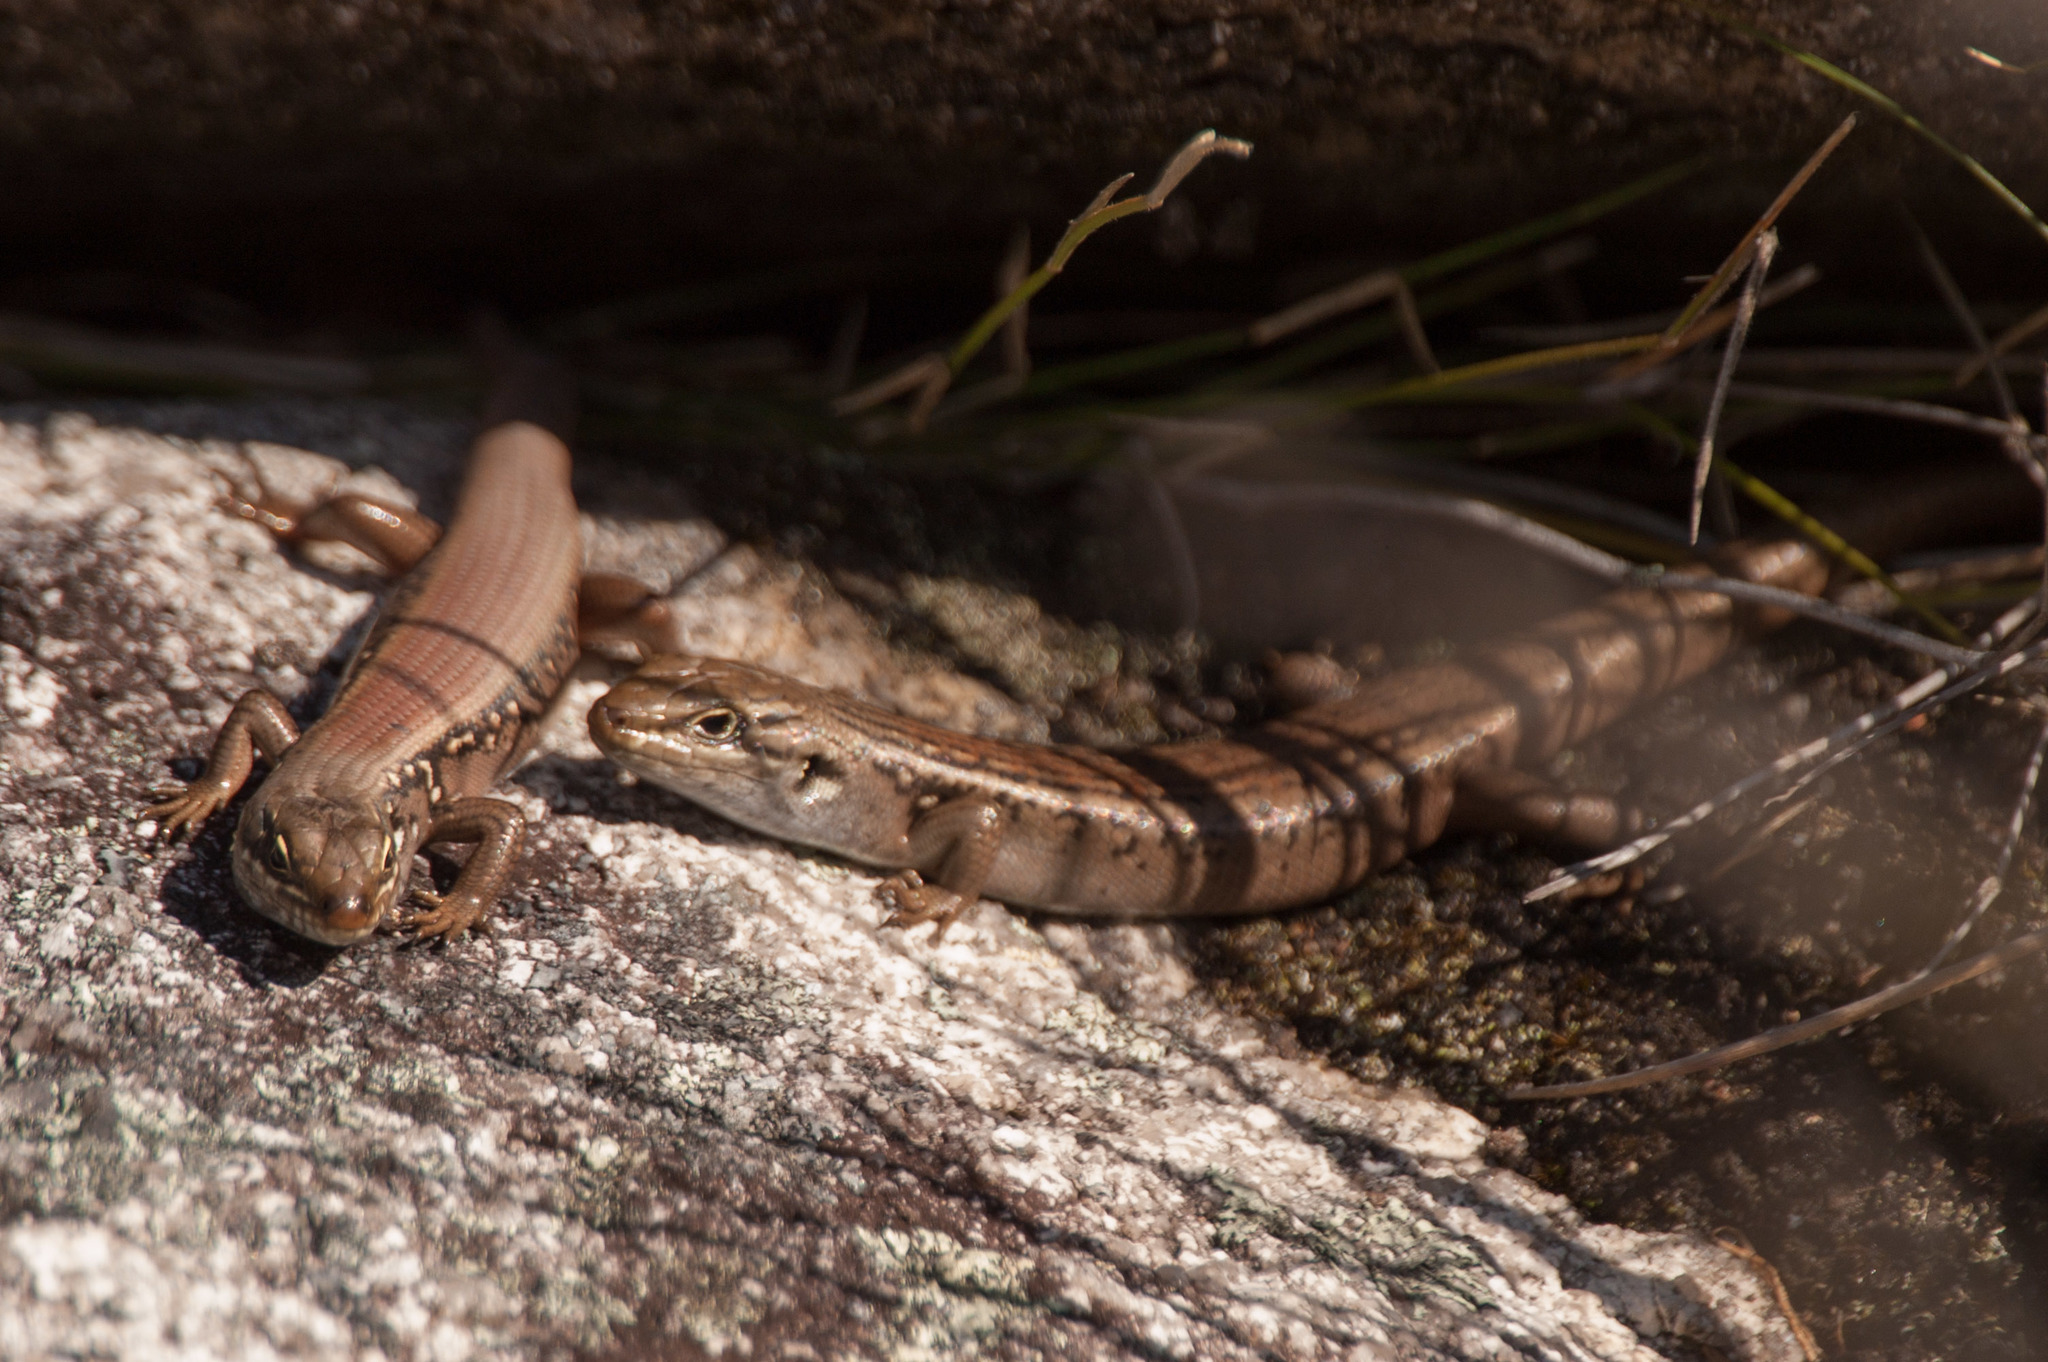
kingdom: Animalia
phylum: Chordata
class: Squamata
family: Scincidae
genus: Liopholis
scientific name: Liopholis whitii
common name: White's rock-skink
